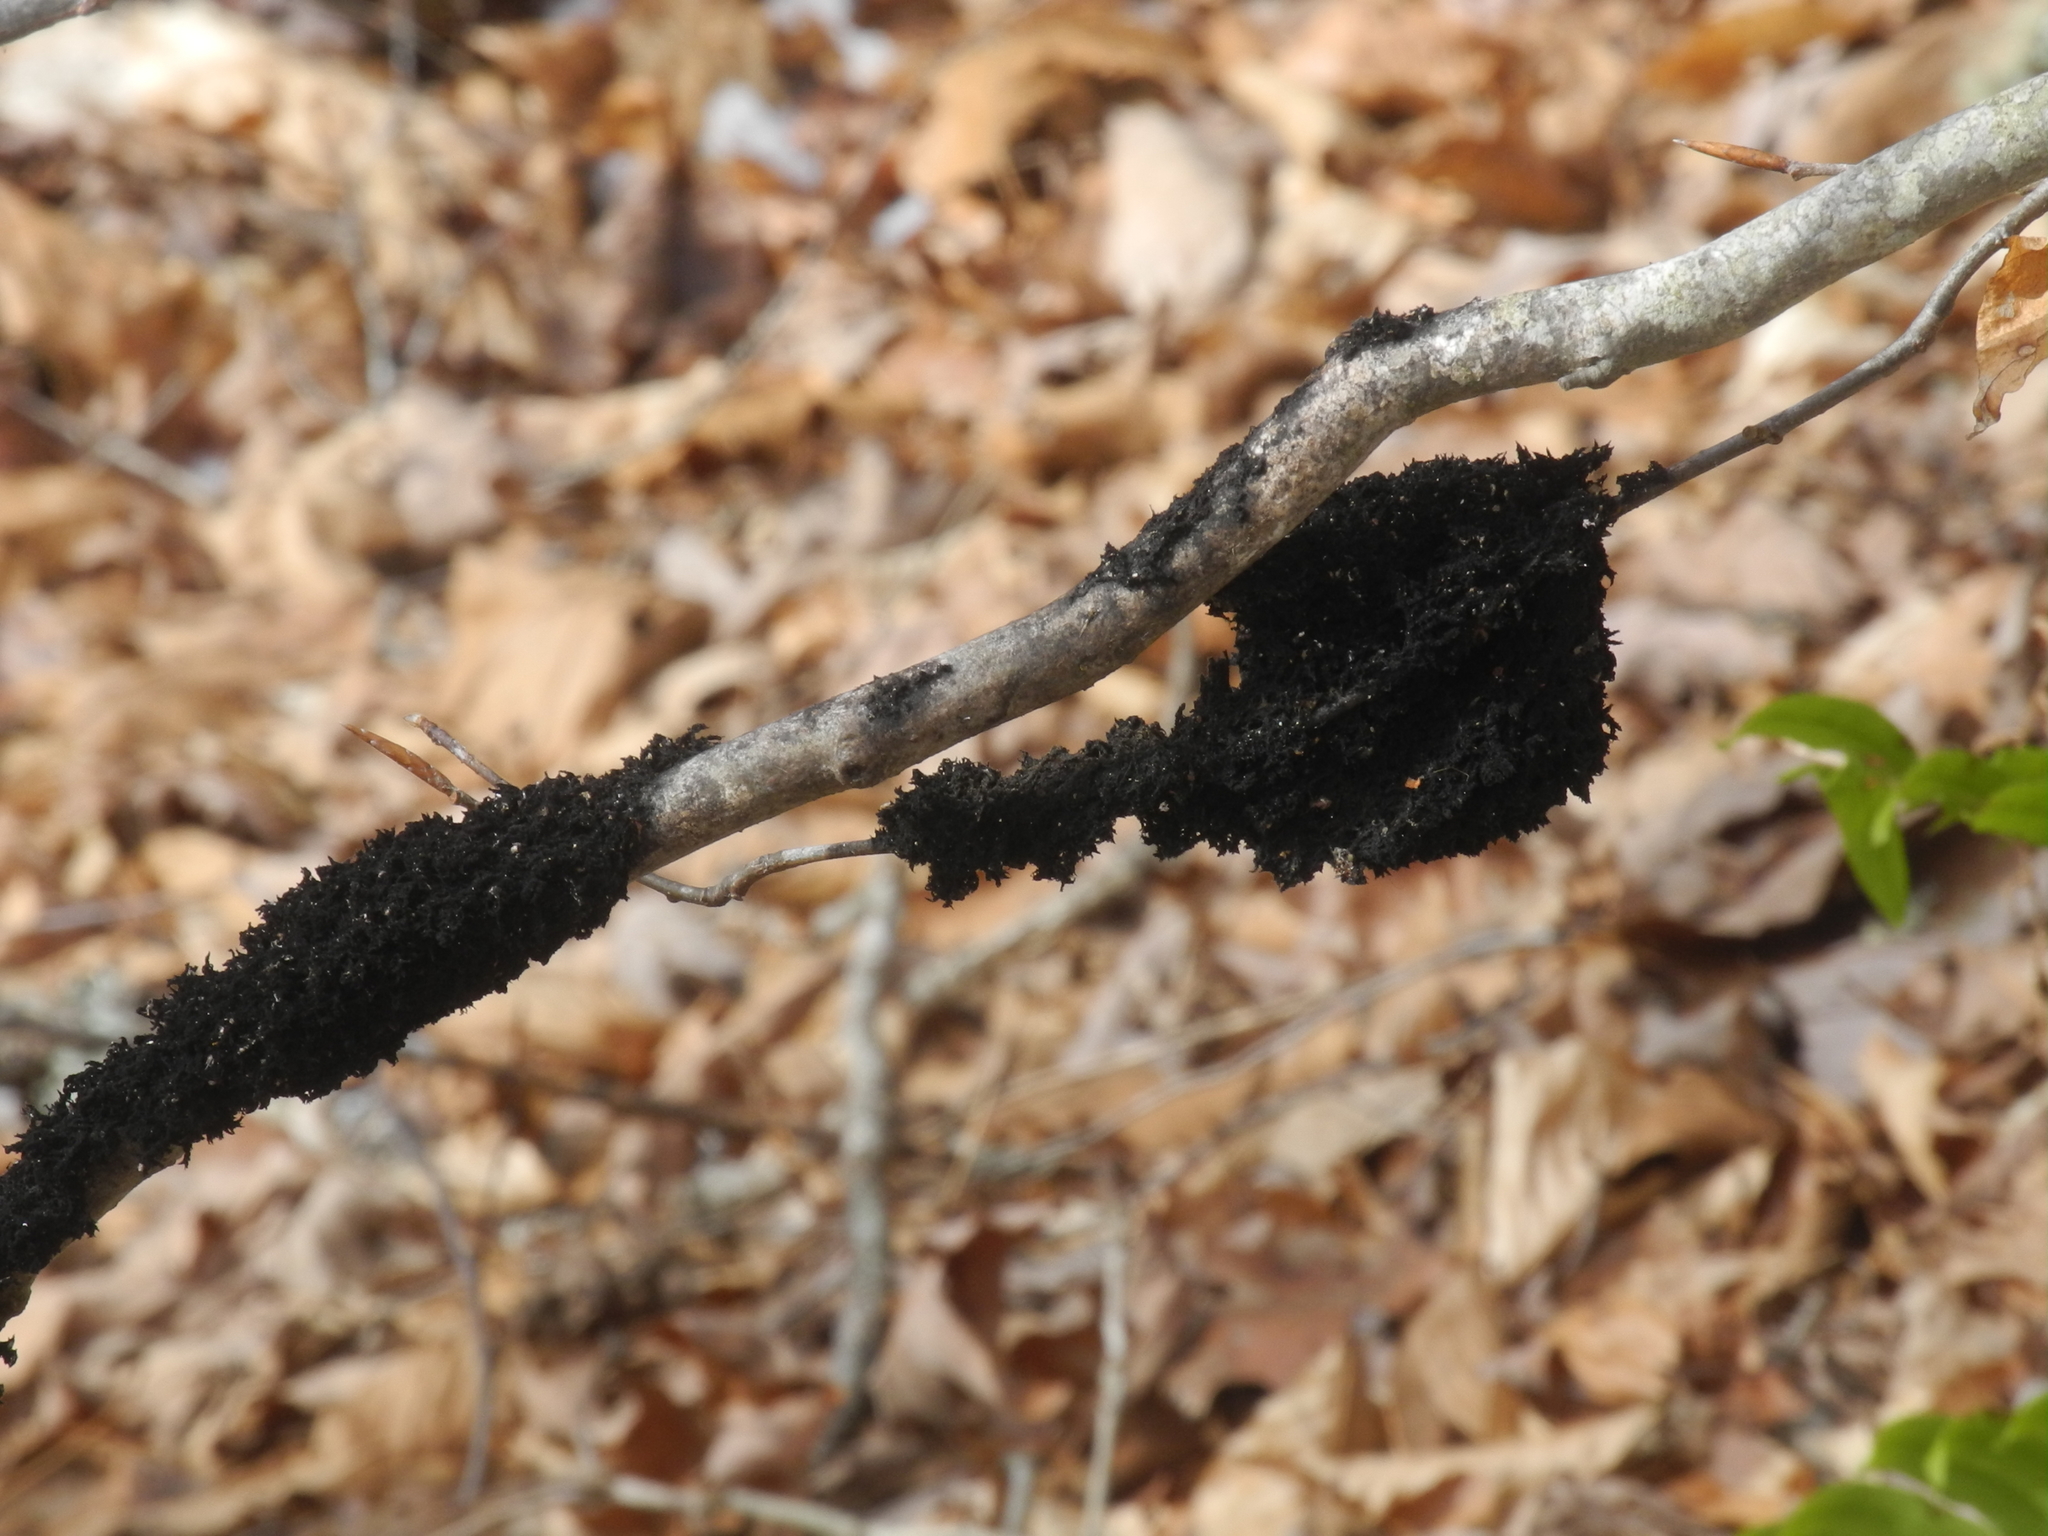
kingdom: Animalia
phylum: Arthropoda
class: Insecta
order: Hemiptera
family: Aphididae
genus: Grylloprociphilus
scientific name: Grylloprociphilus imbricator
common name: Beech blight aphid
